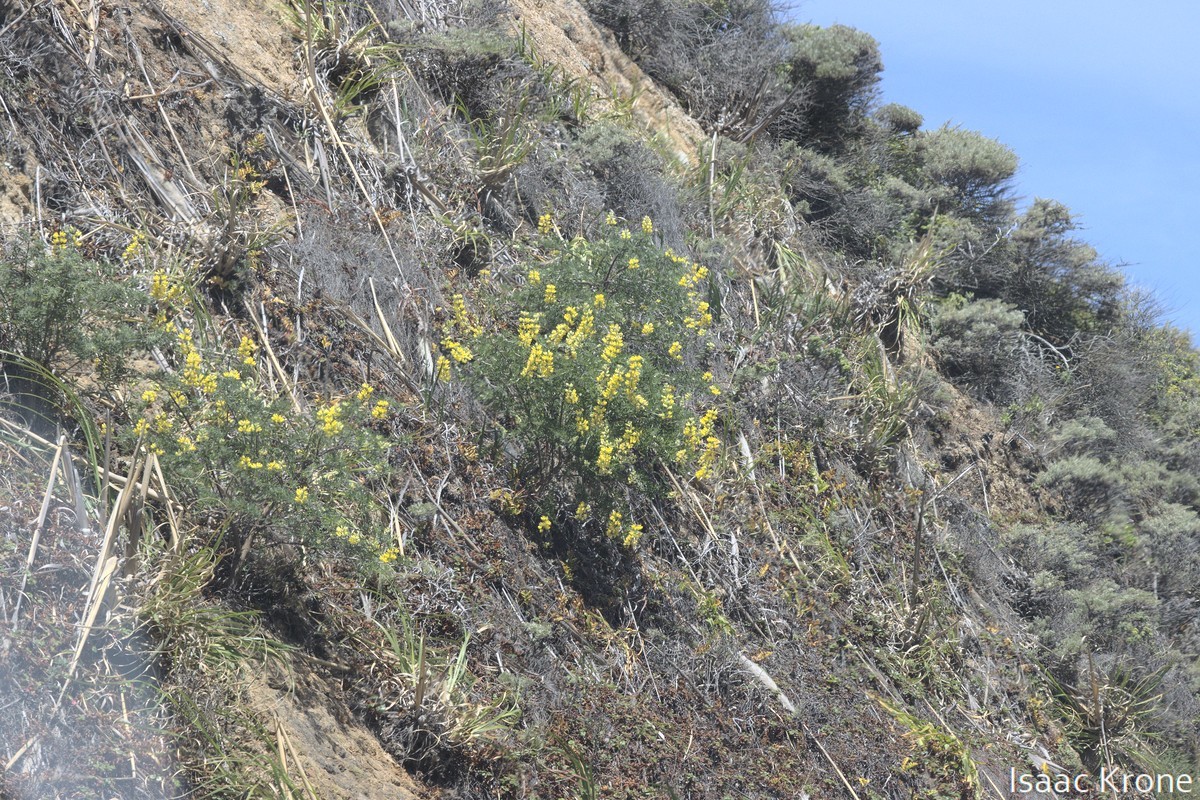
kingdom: Plantae
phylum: Tracheophyta
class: Magnoliopsida
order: Fabales
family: Fabaceae
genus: Lupinus
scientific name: Lupinus arboreus
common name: Yellow bush lupine
